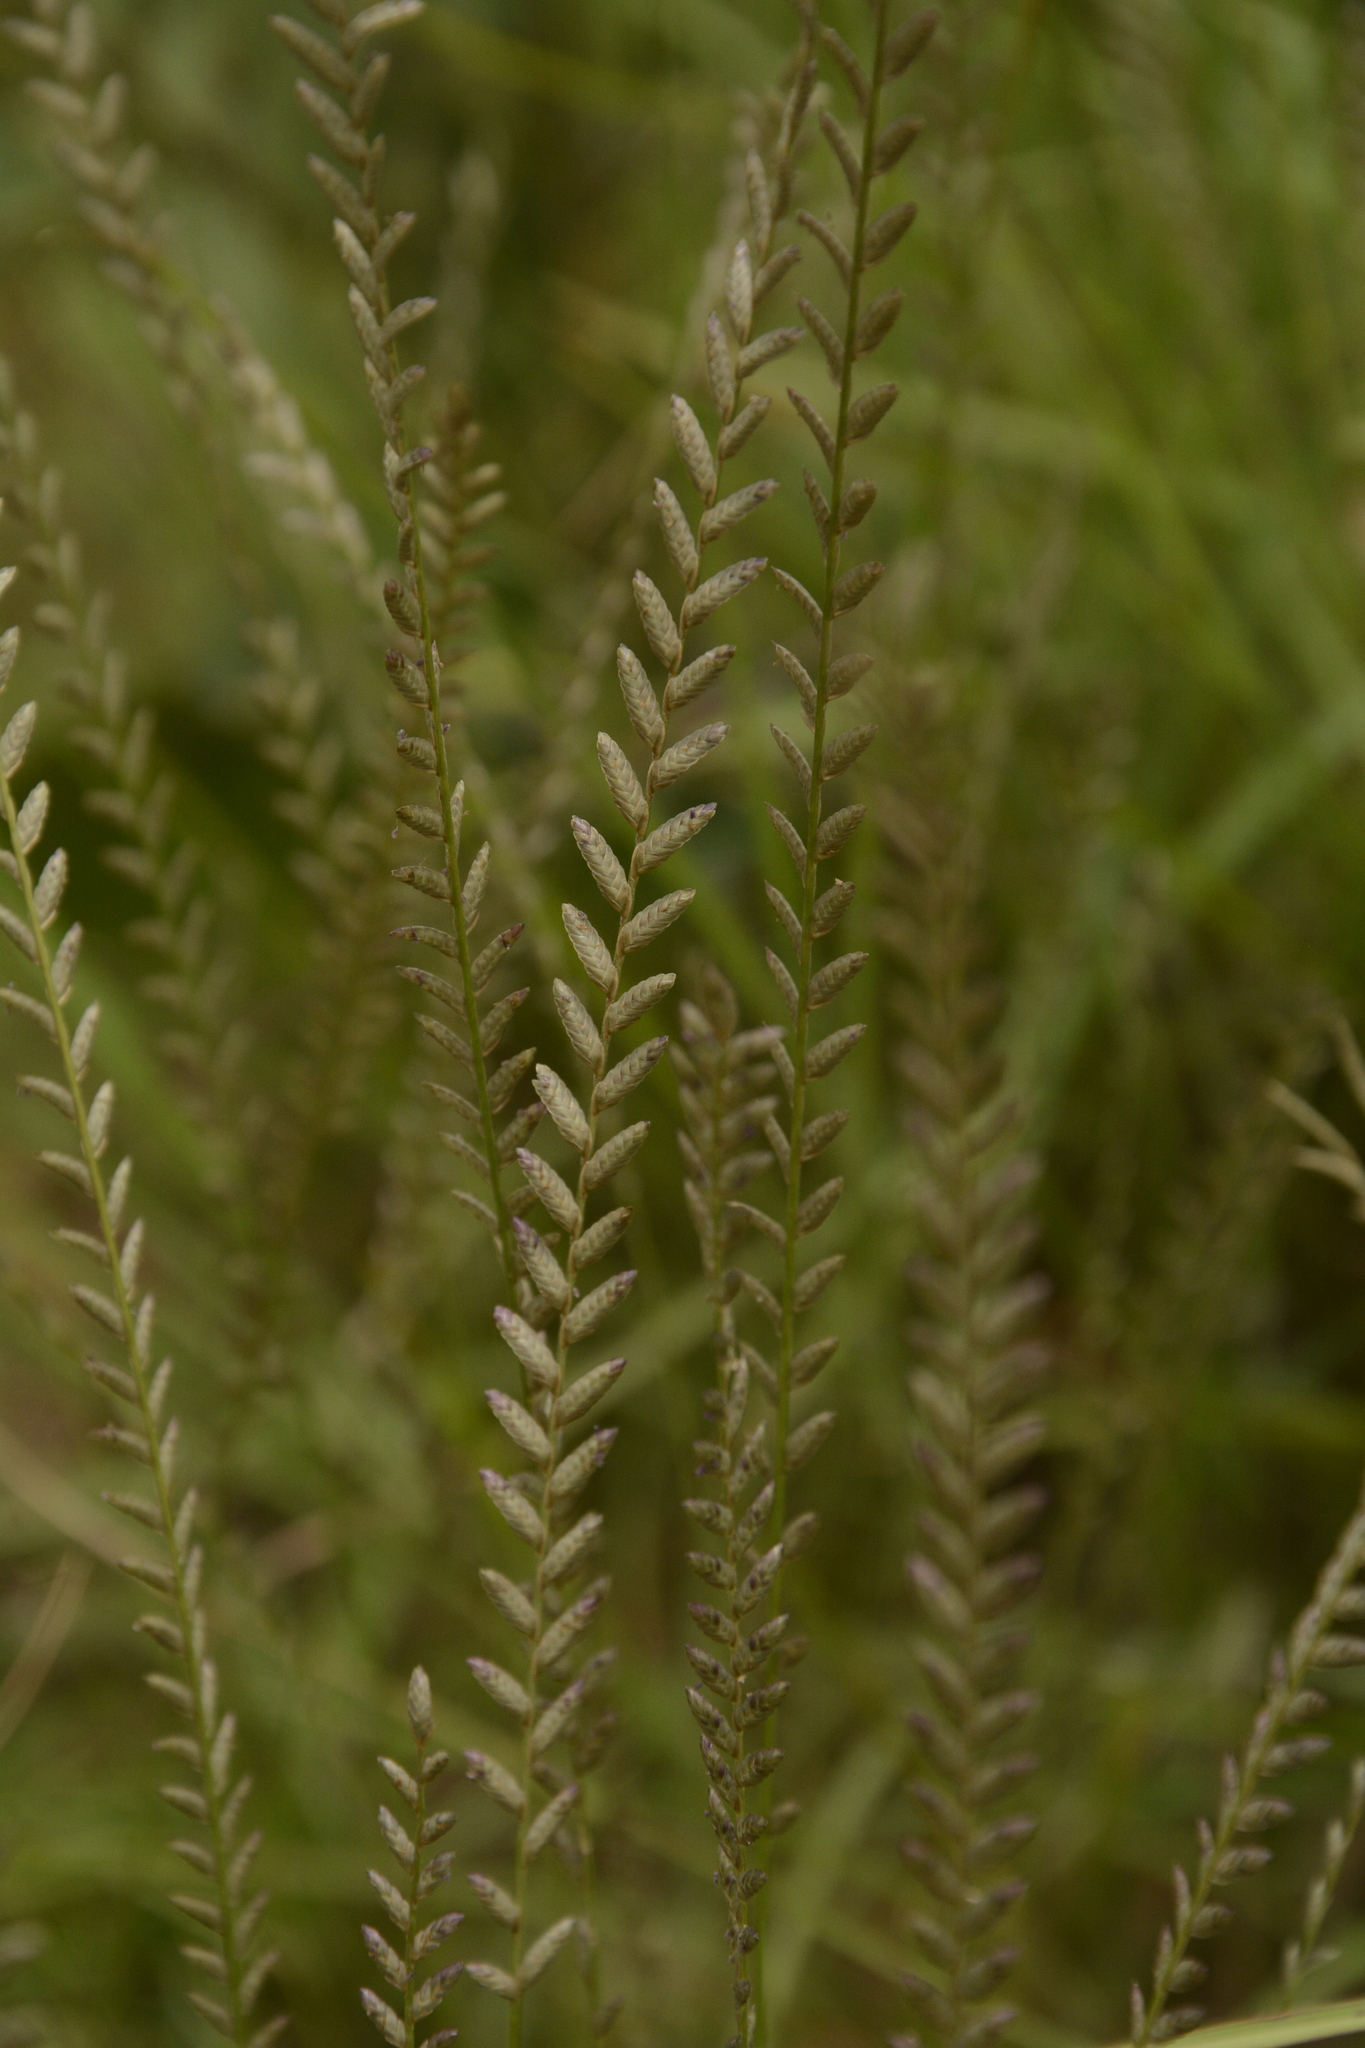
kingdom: Plantae
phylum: Tracheophyta
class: Liliopsida
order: Poales
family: Poaceae
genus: Eragrostiella
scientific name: Eragrostiella bifaria
